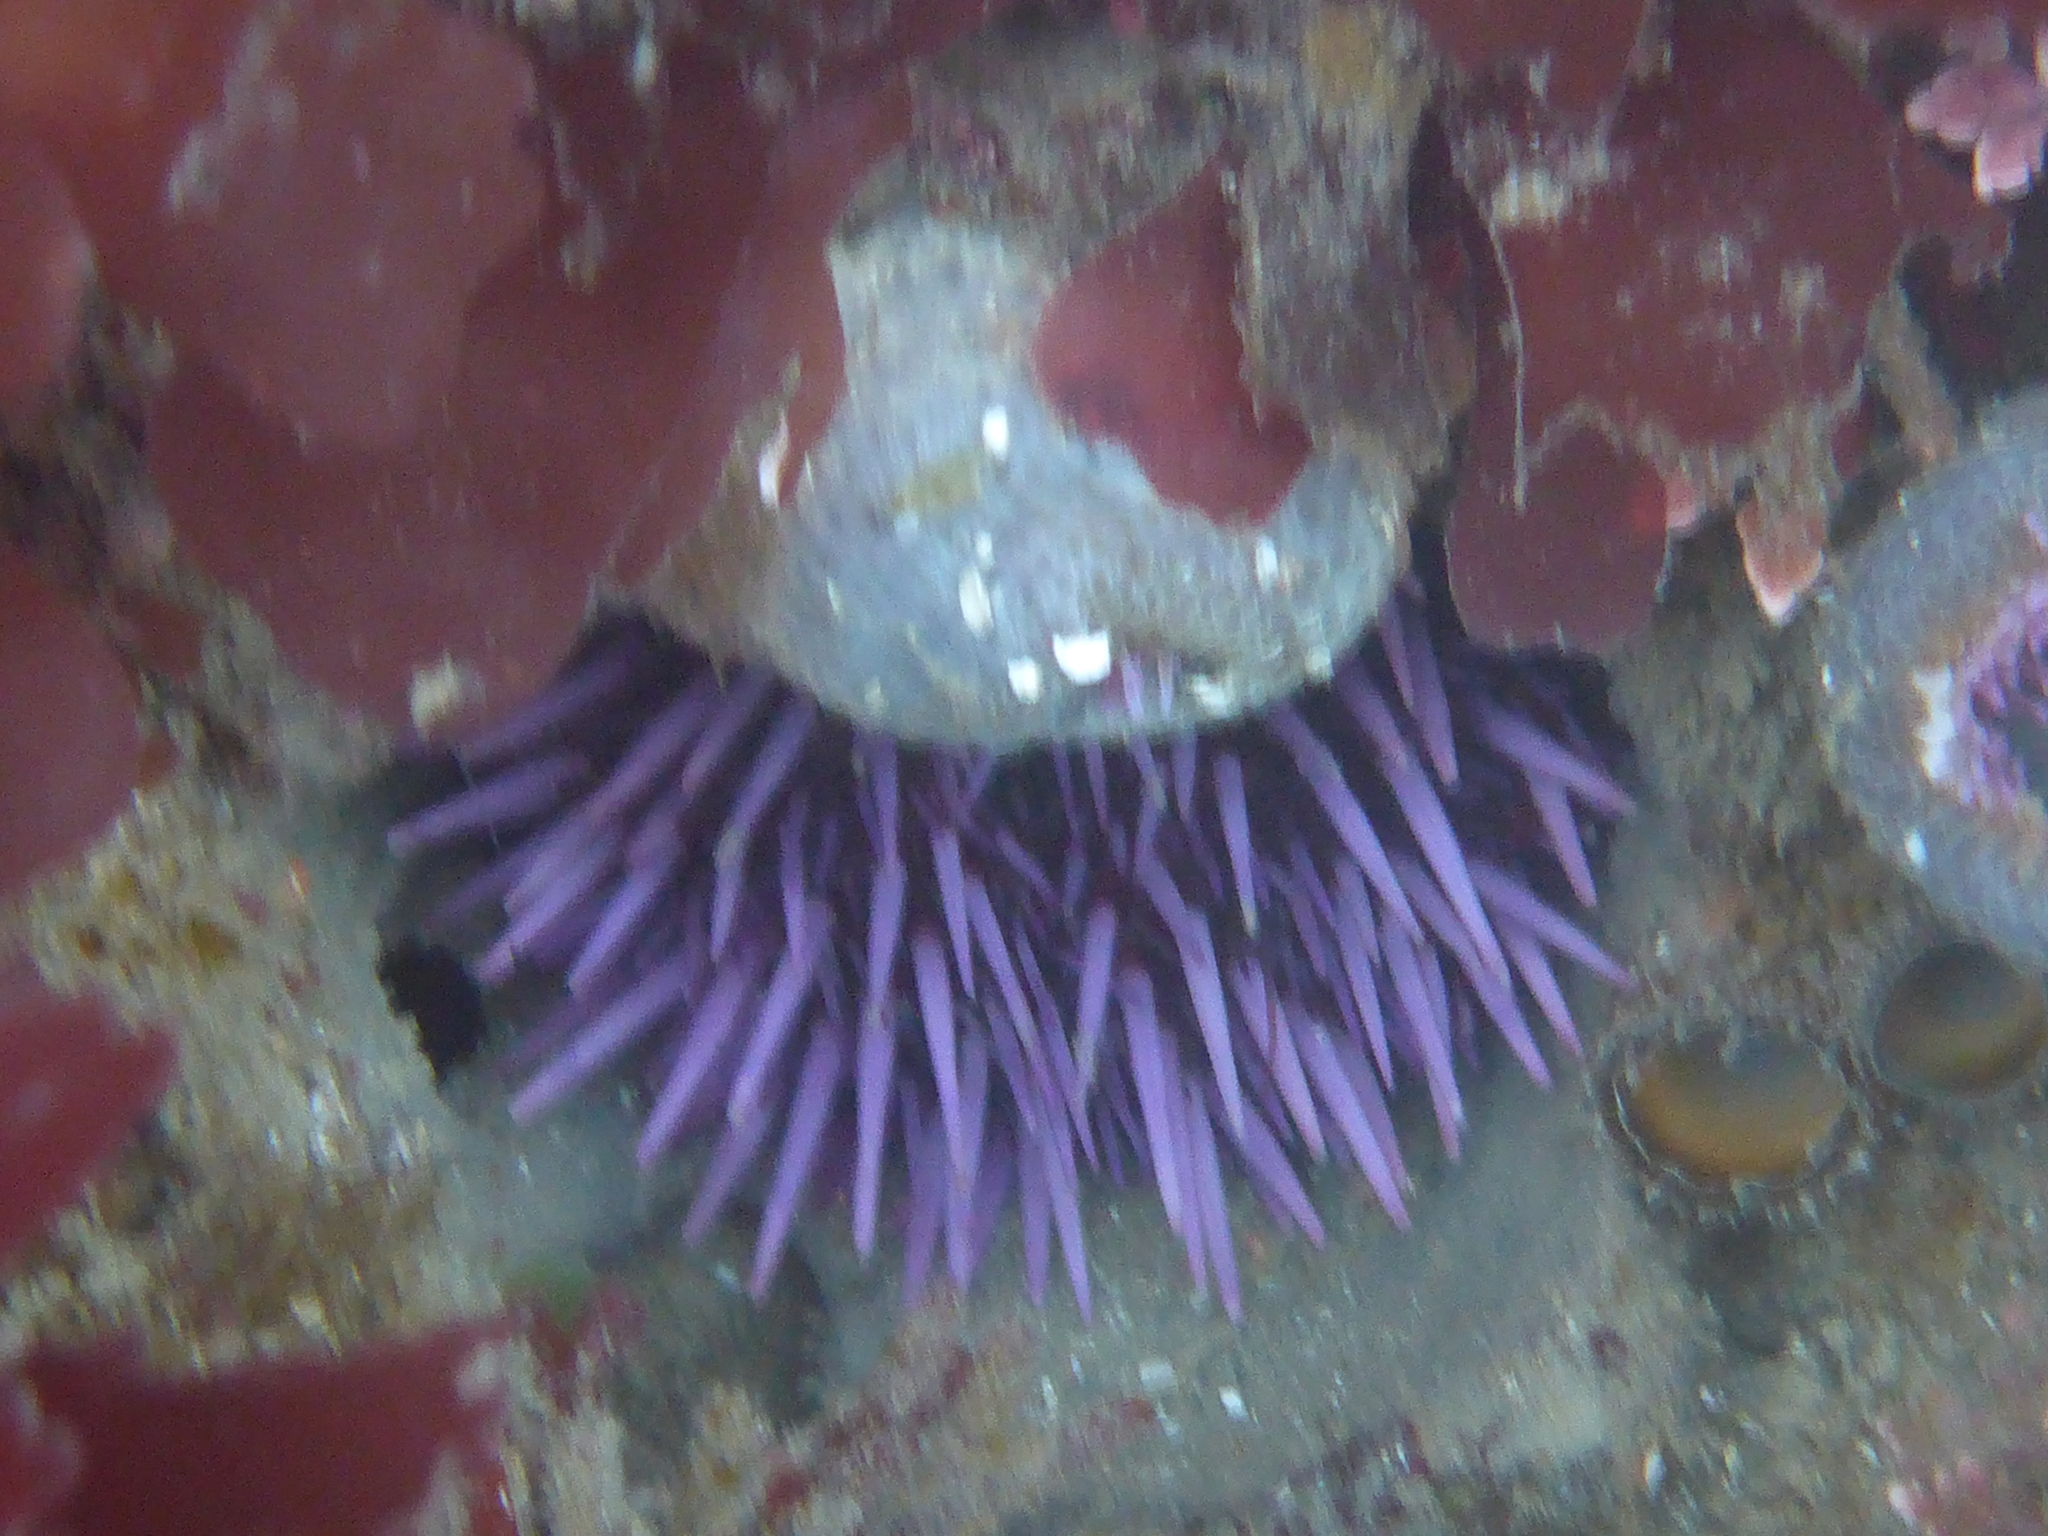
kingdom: Animalia
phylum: Echinodermata
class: Echinoidea
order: Camarodonta
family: Strongylocentrotidae
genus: Strongylocentrotus
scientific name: Strongylocentrotus purpuratus
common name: Purple sea urchin
